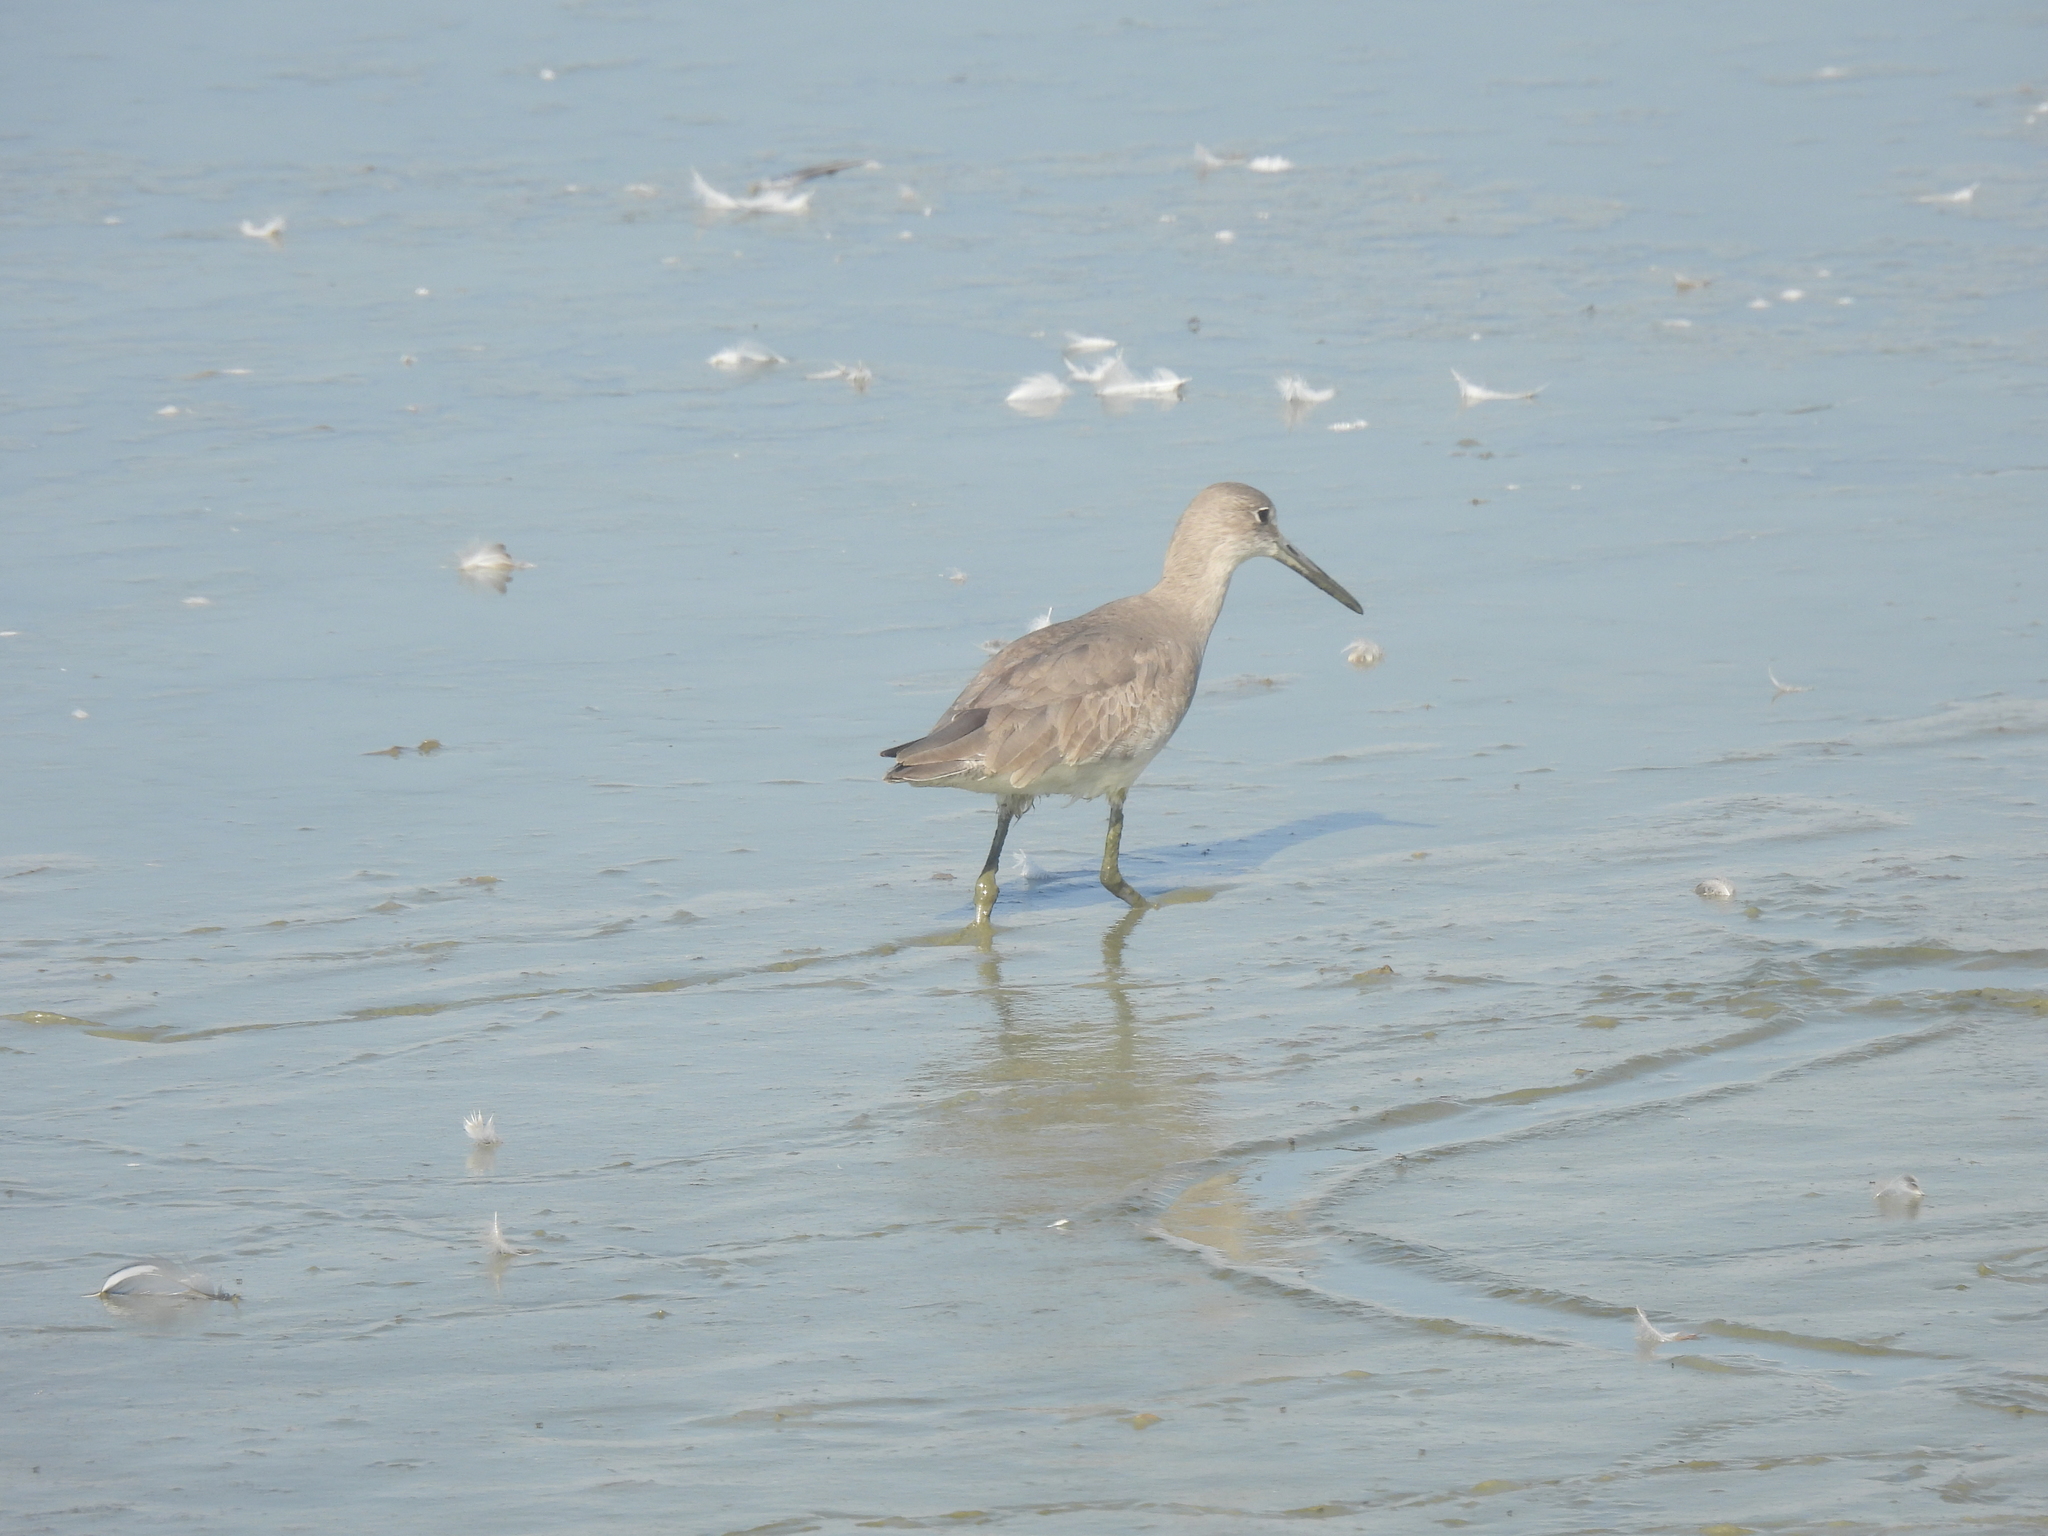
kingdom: Animalia
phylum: Chordata
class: Aves
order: Charadriiformes
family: Scolopacidae
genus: Tringa
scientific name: Tringa semipalmata
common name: Willet
